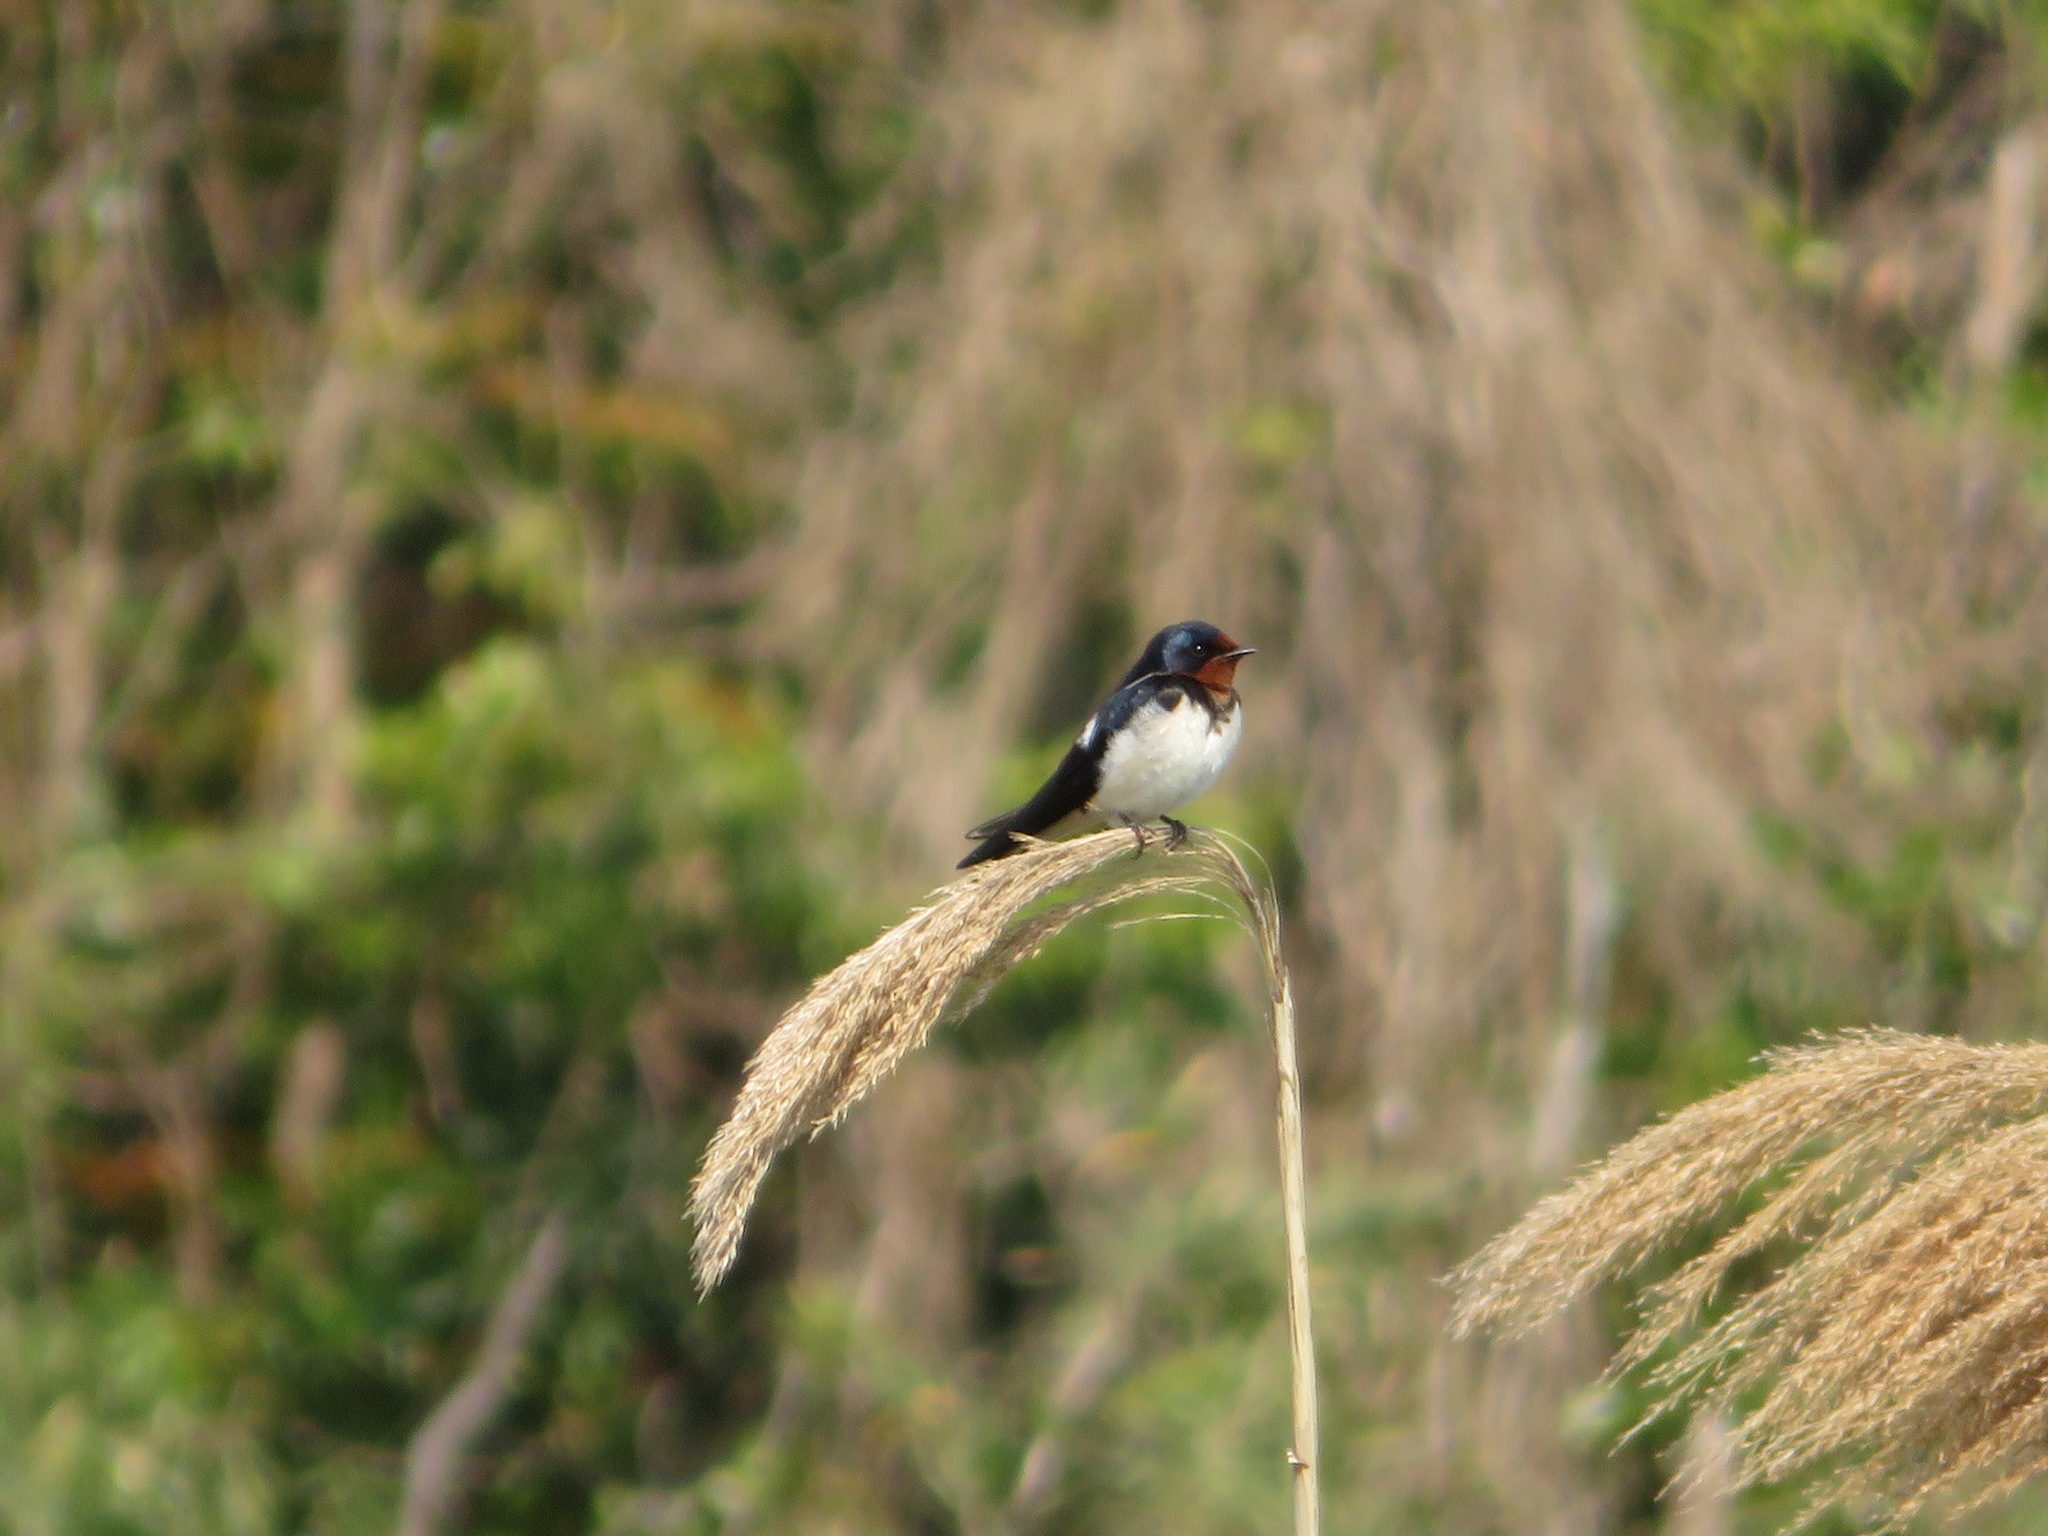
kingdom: Animalia
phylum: Chordata
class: Aves
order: Passeriformes
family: Hirundinidae
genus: Hirundo
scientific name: Hirundo rustica
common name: Barn swallow
